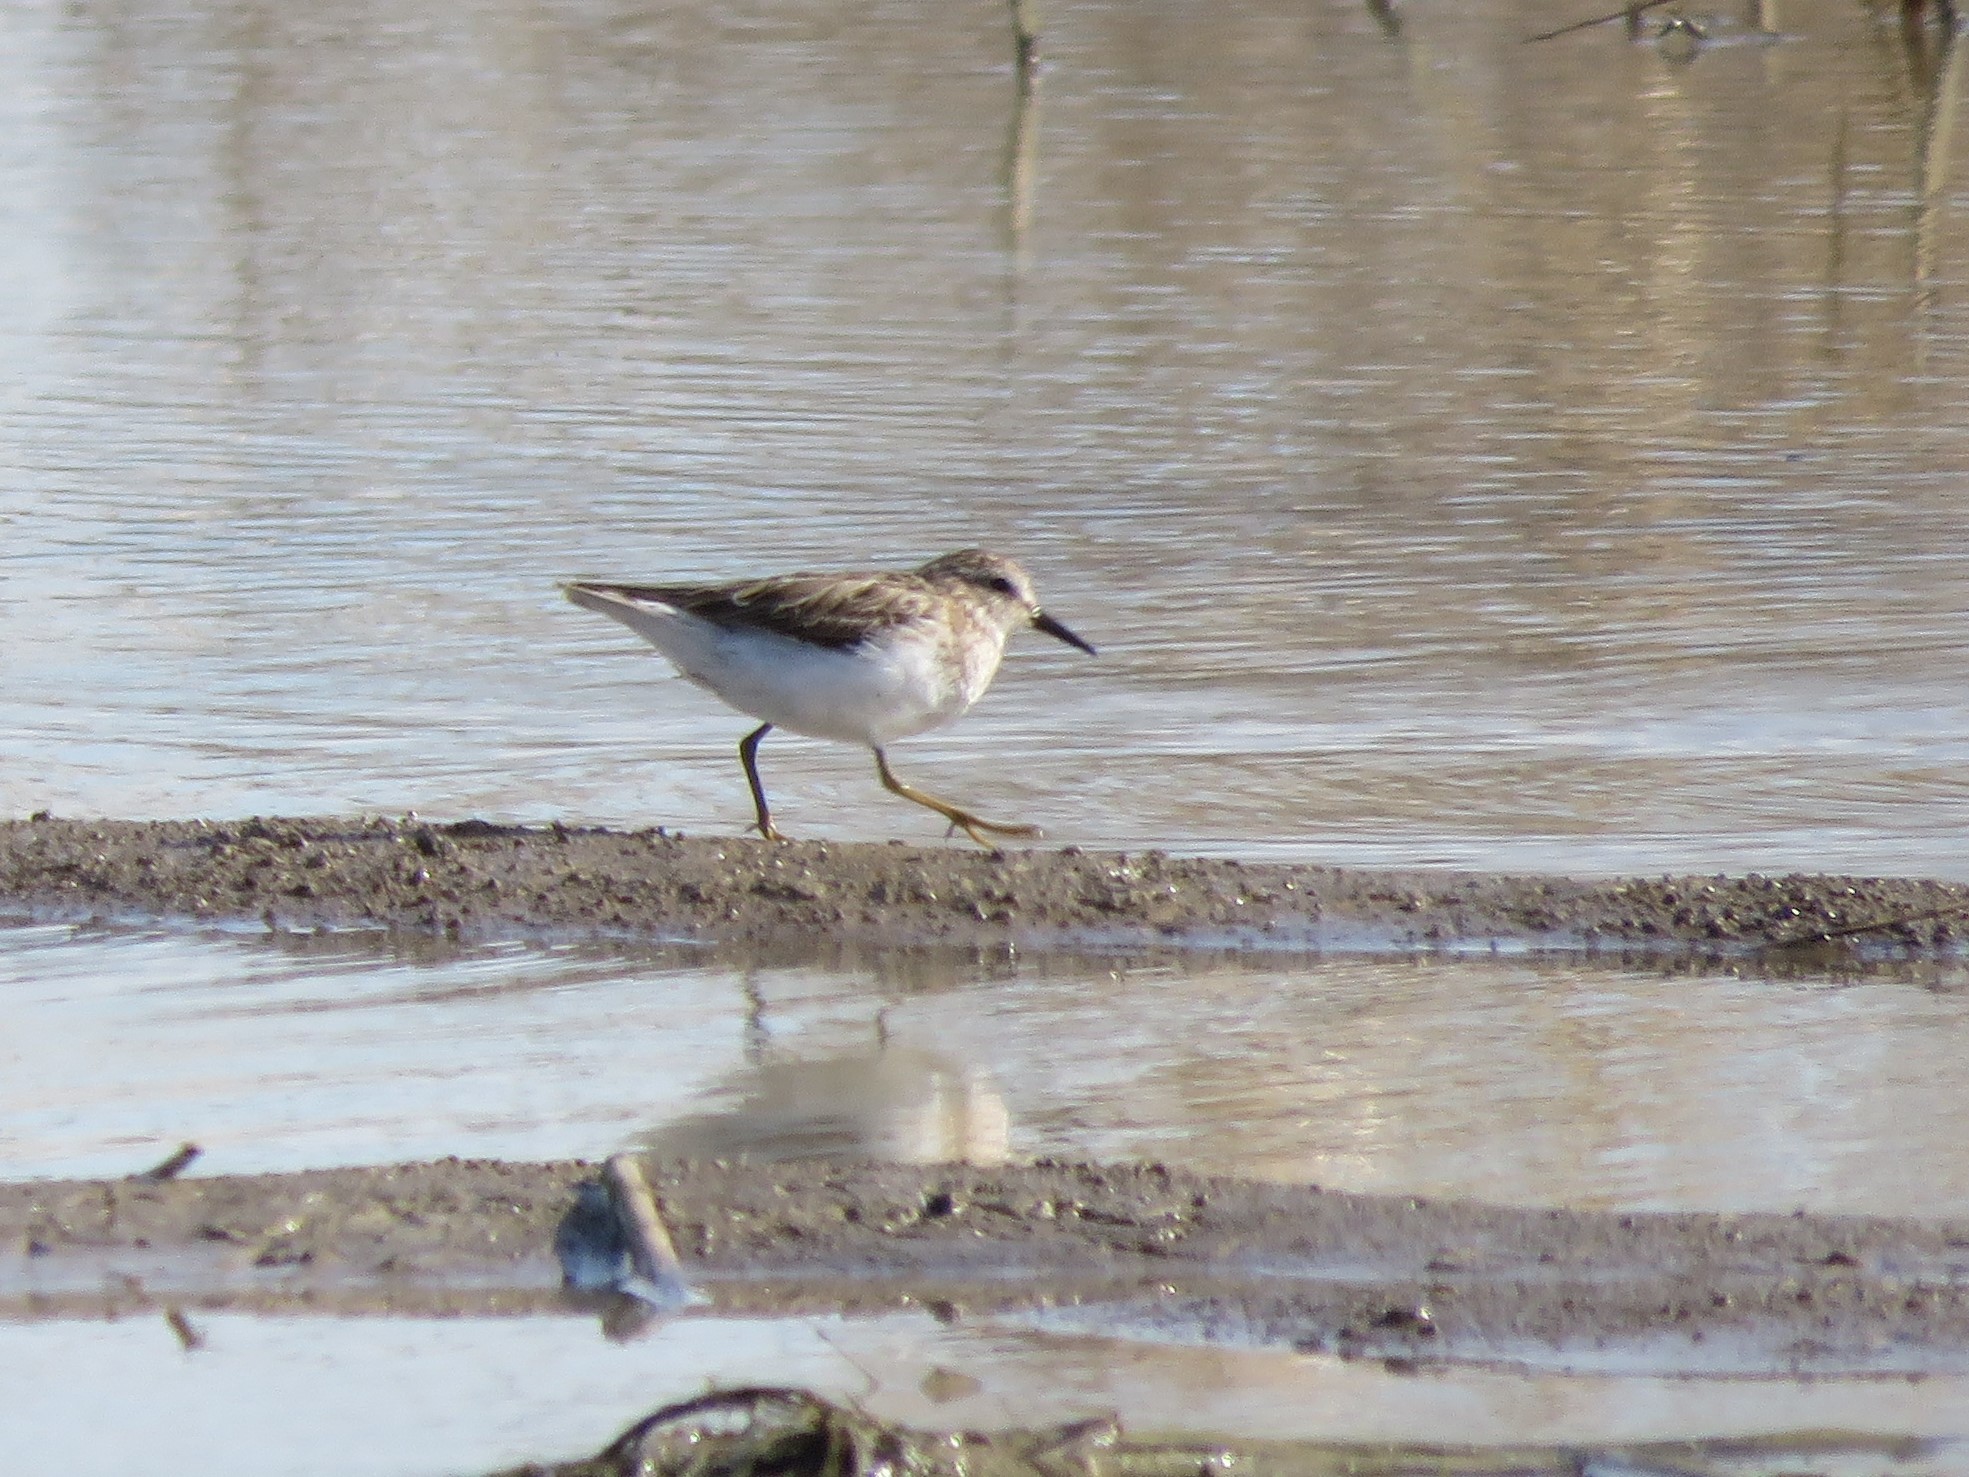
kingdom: Animalia
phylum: Chordata
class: Aves
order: Charadriiformes
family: Scolopacidae
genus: Calidris
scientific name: Calidris minutilla
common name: Least sandpiper
